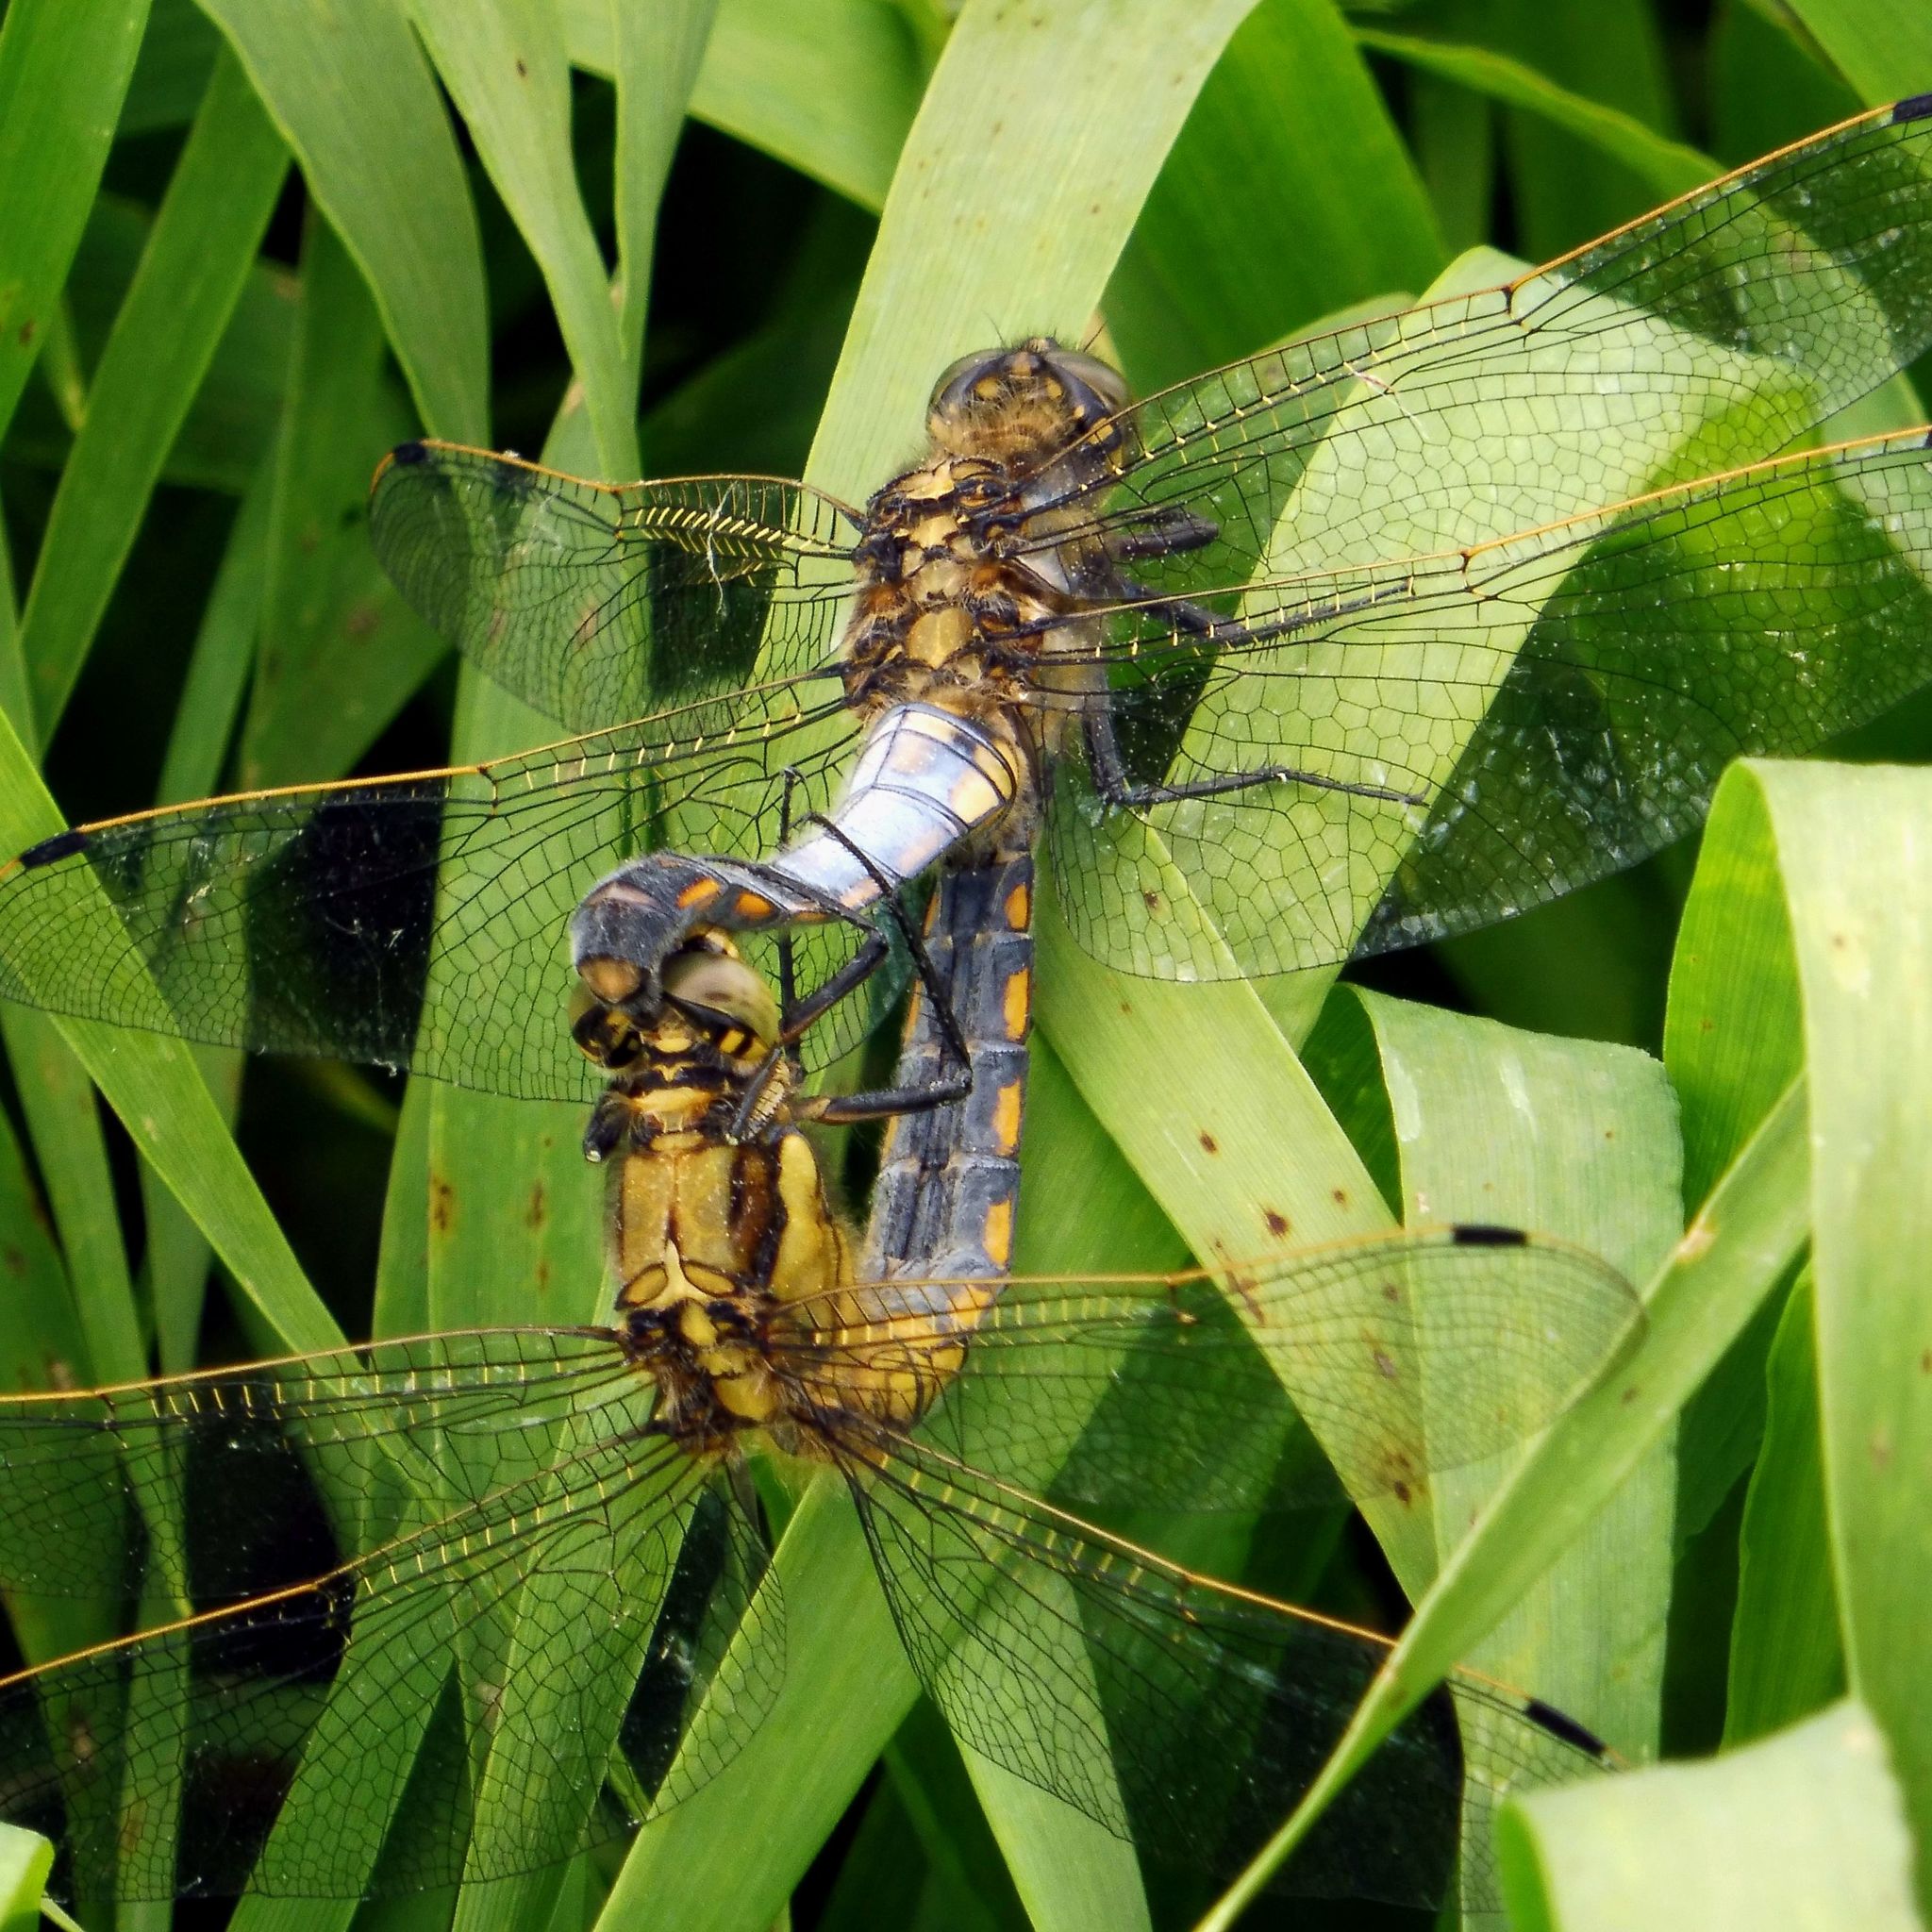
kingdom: Animalia
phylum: Arthropoda
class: Insecta
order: Odonata
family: Libellulidae
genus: Orthetrum
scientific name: Orthetrum cancellatum
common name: Black-tailed skimmer
